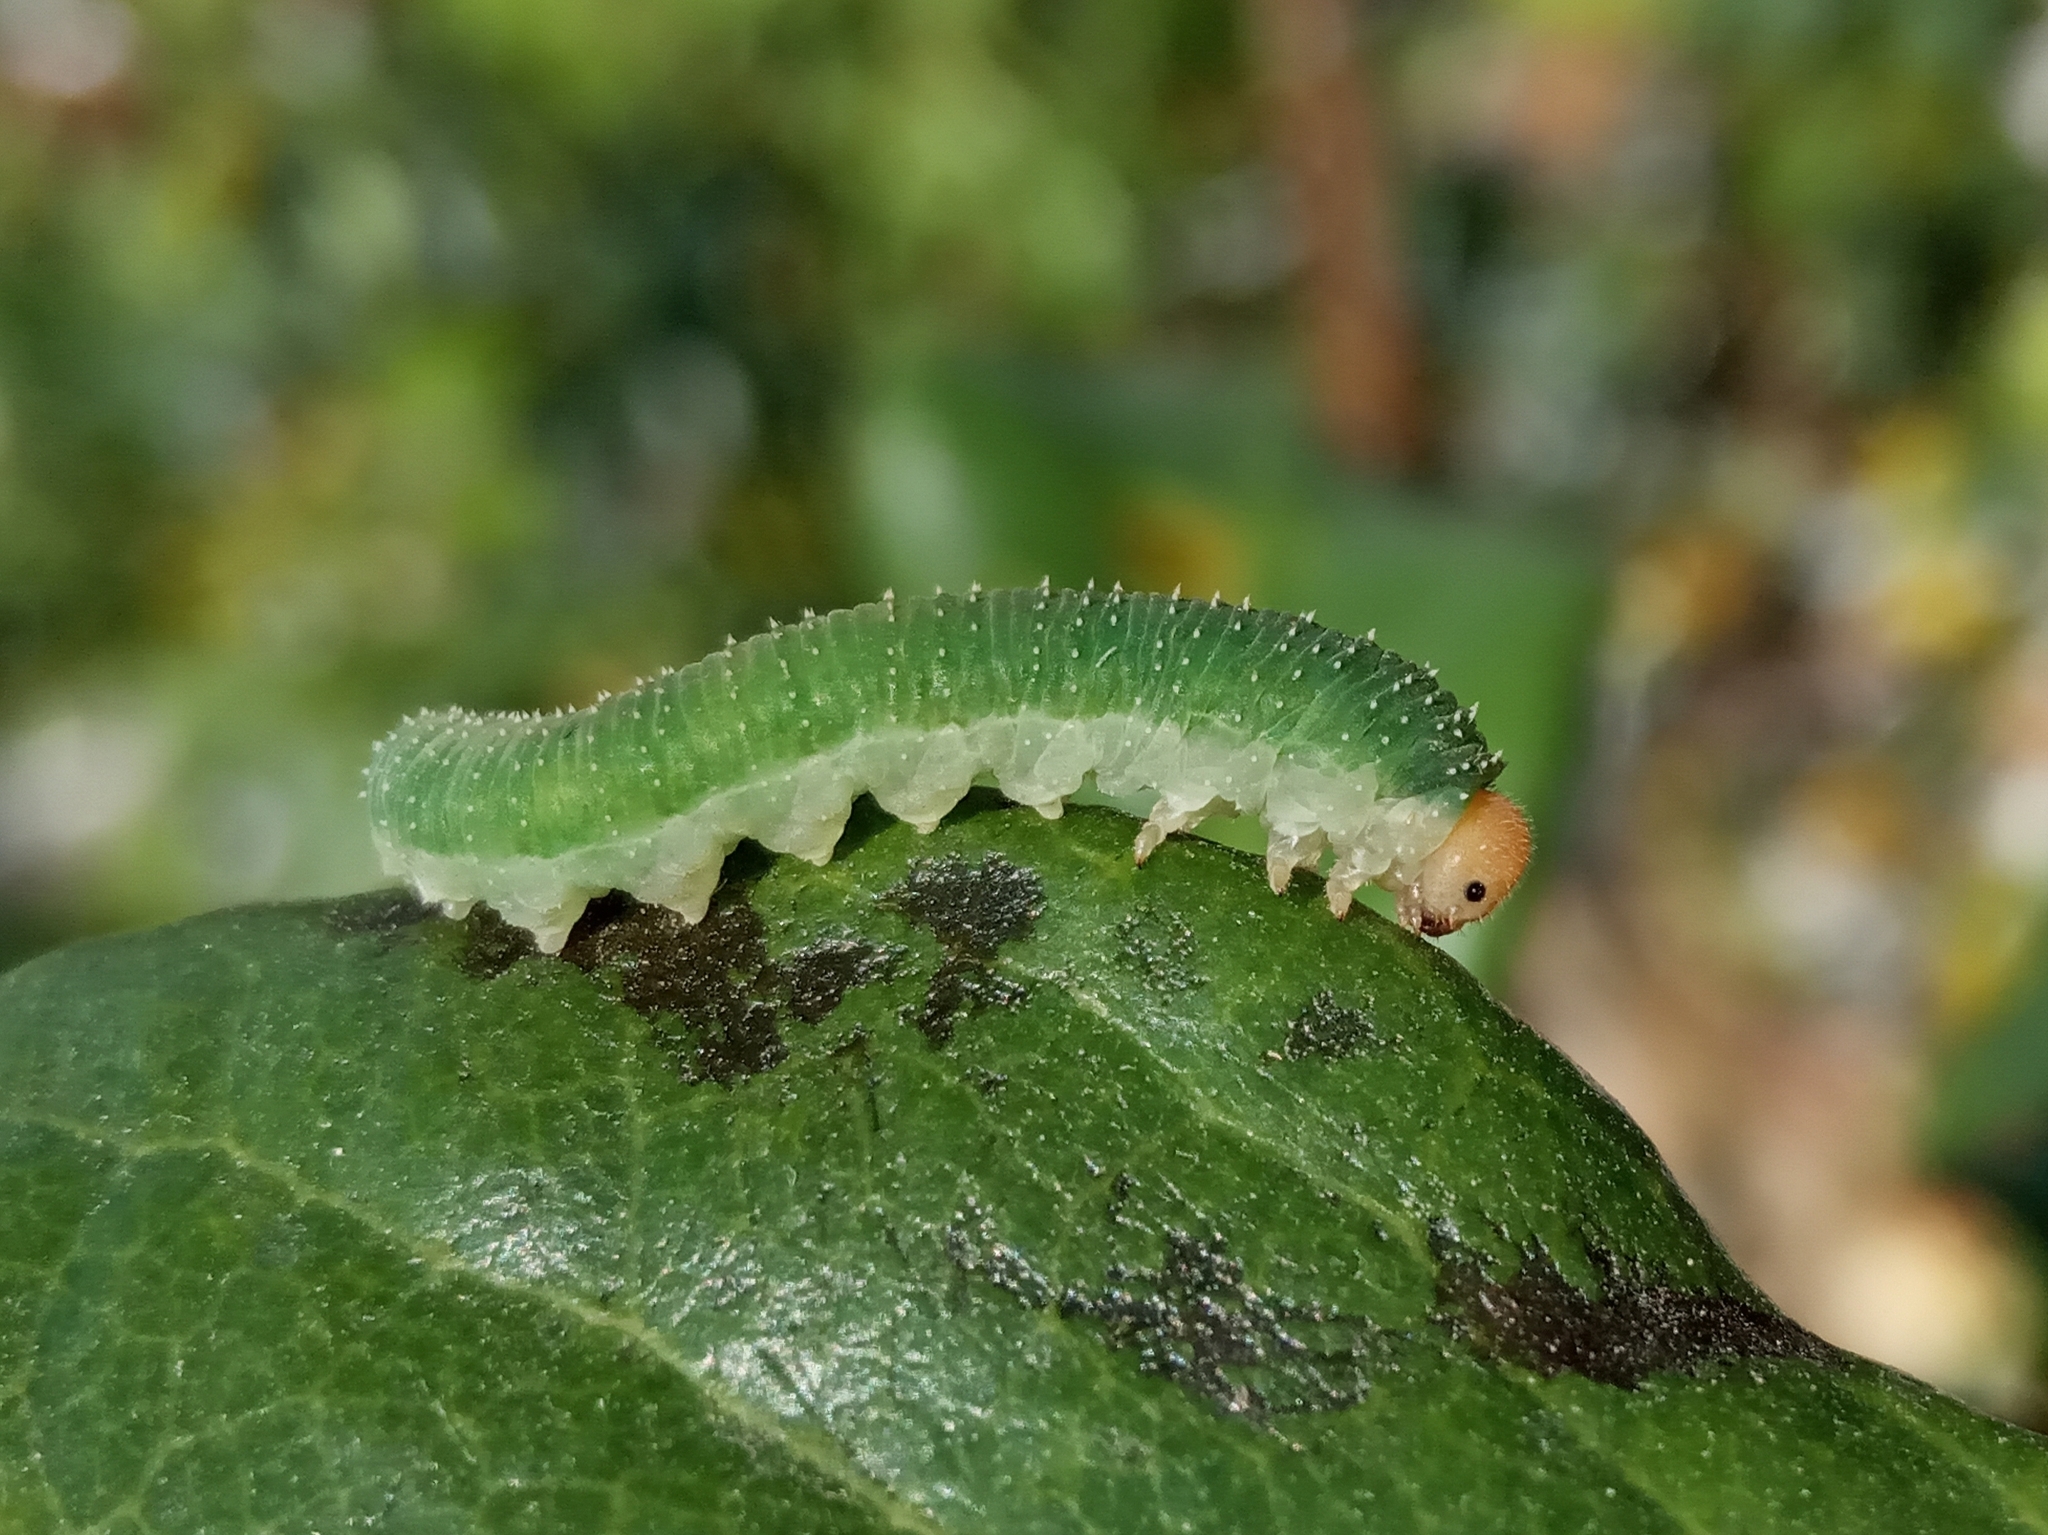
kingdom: Animalia
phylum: Arthropoda
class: Insecta
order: Hymenoptera
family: Tenthredinidae
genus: Allantus
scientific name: Allantus
